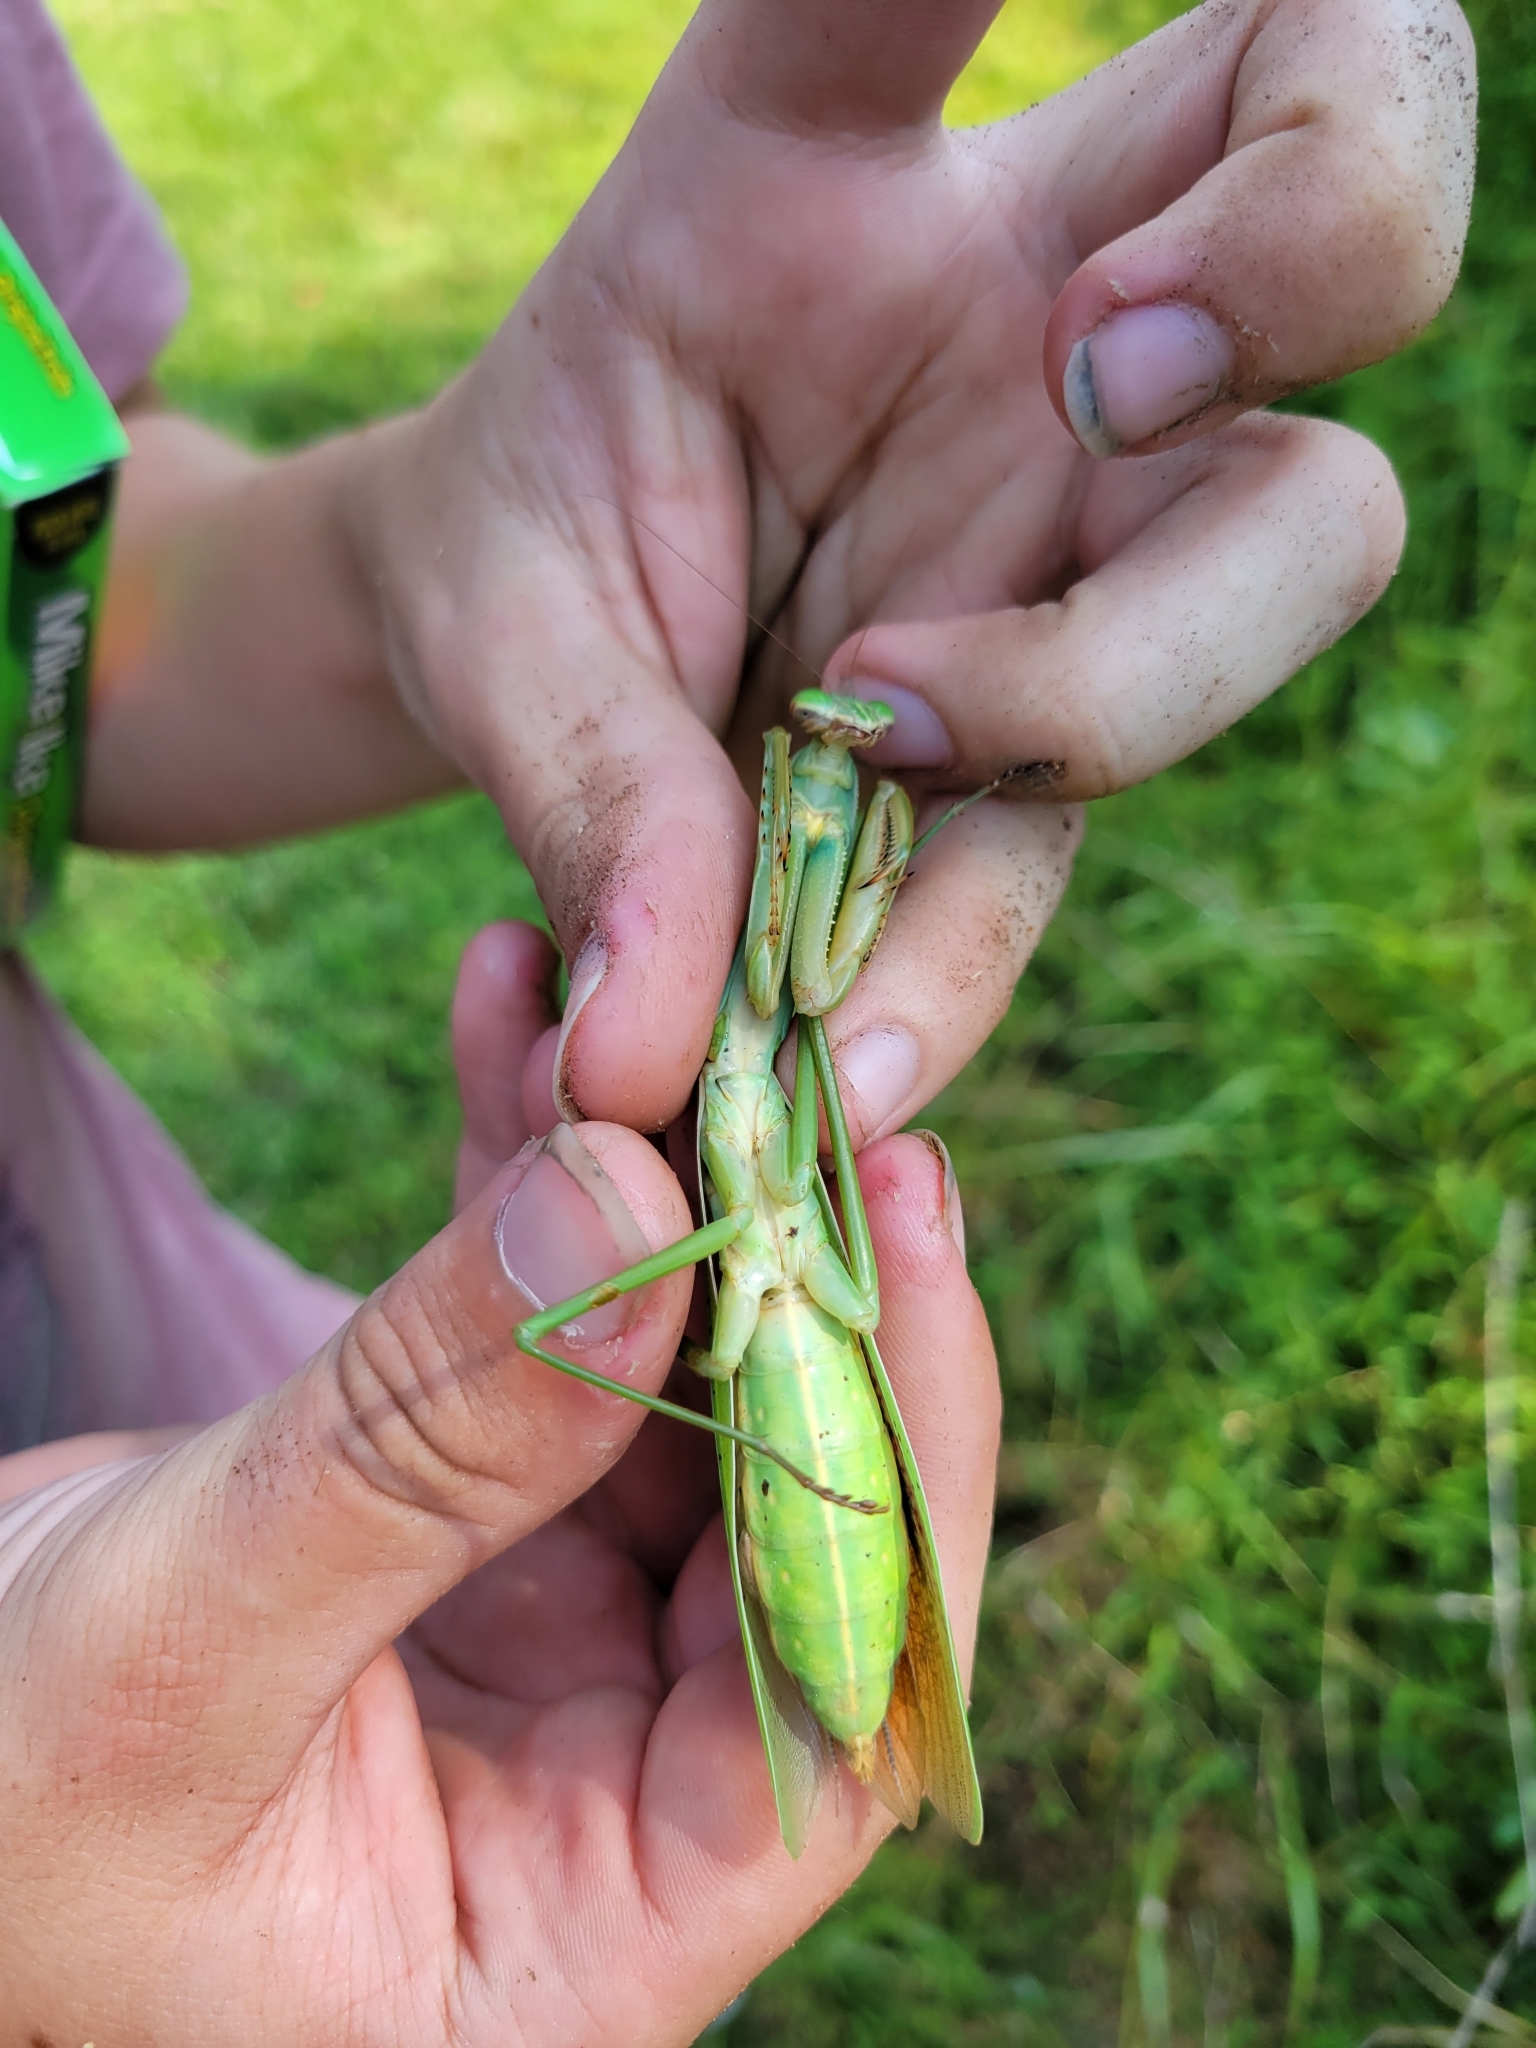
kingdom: Animalia
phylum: Arthropoda
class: Insecta
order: Mantodea
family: Mantidae
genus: Tenodera
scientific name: Tenodera sinensis
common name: Chinese mantis
